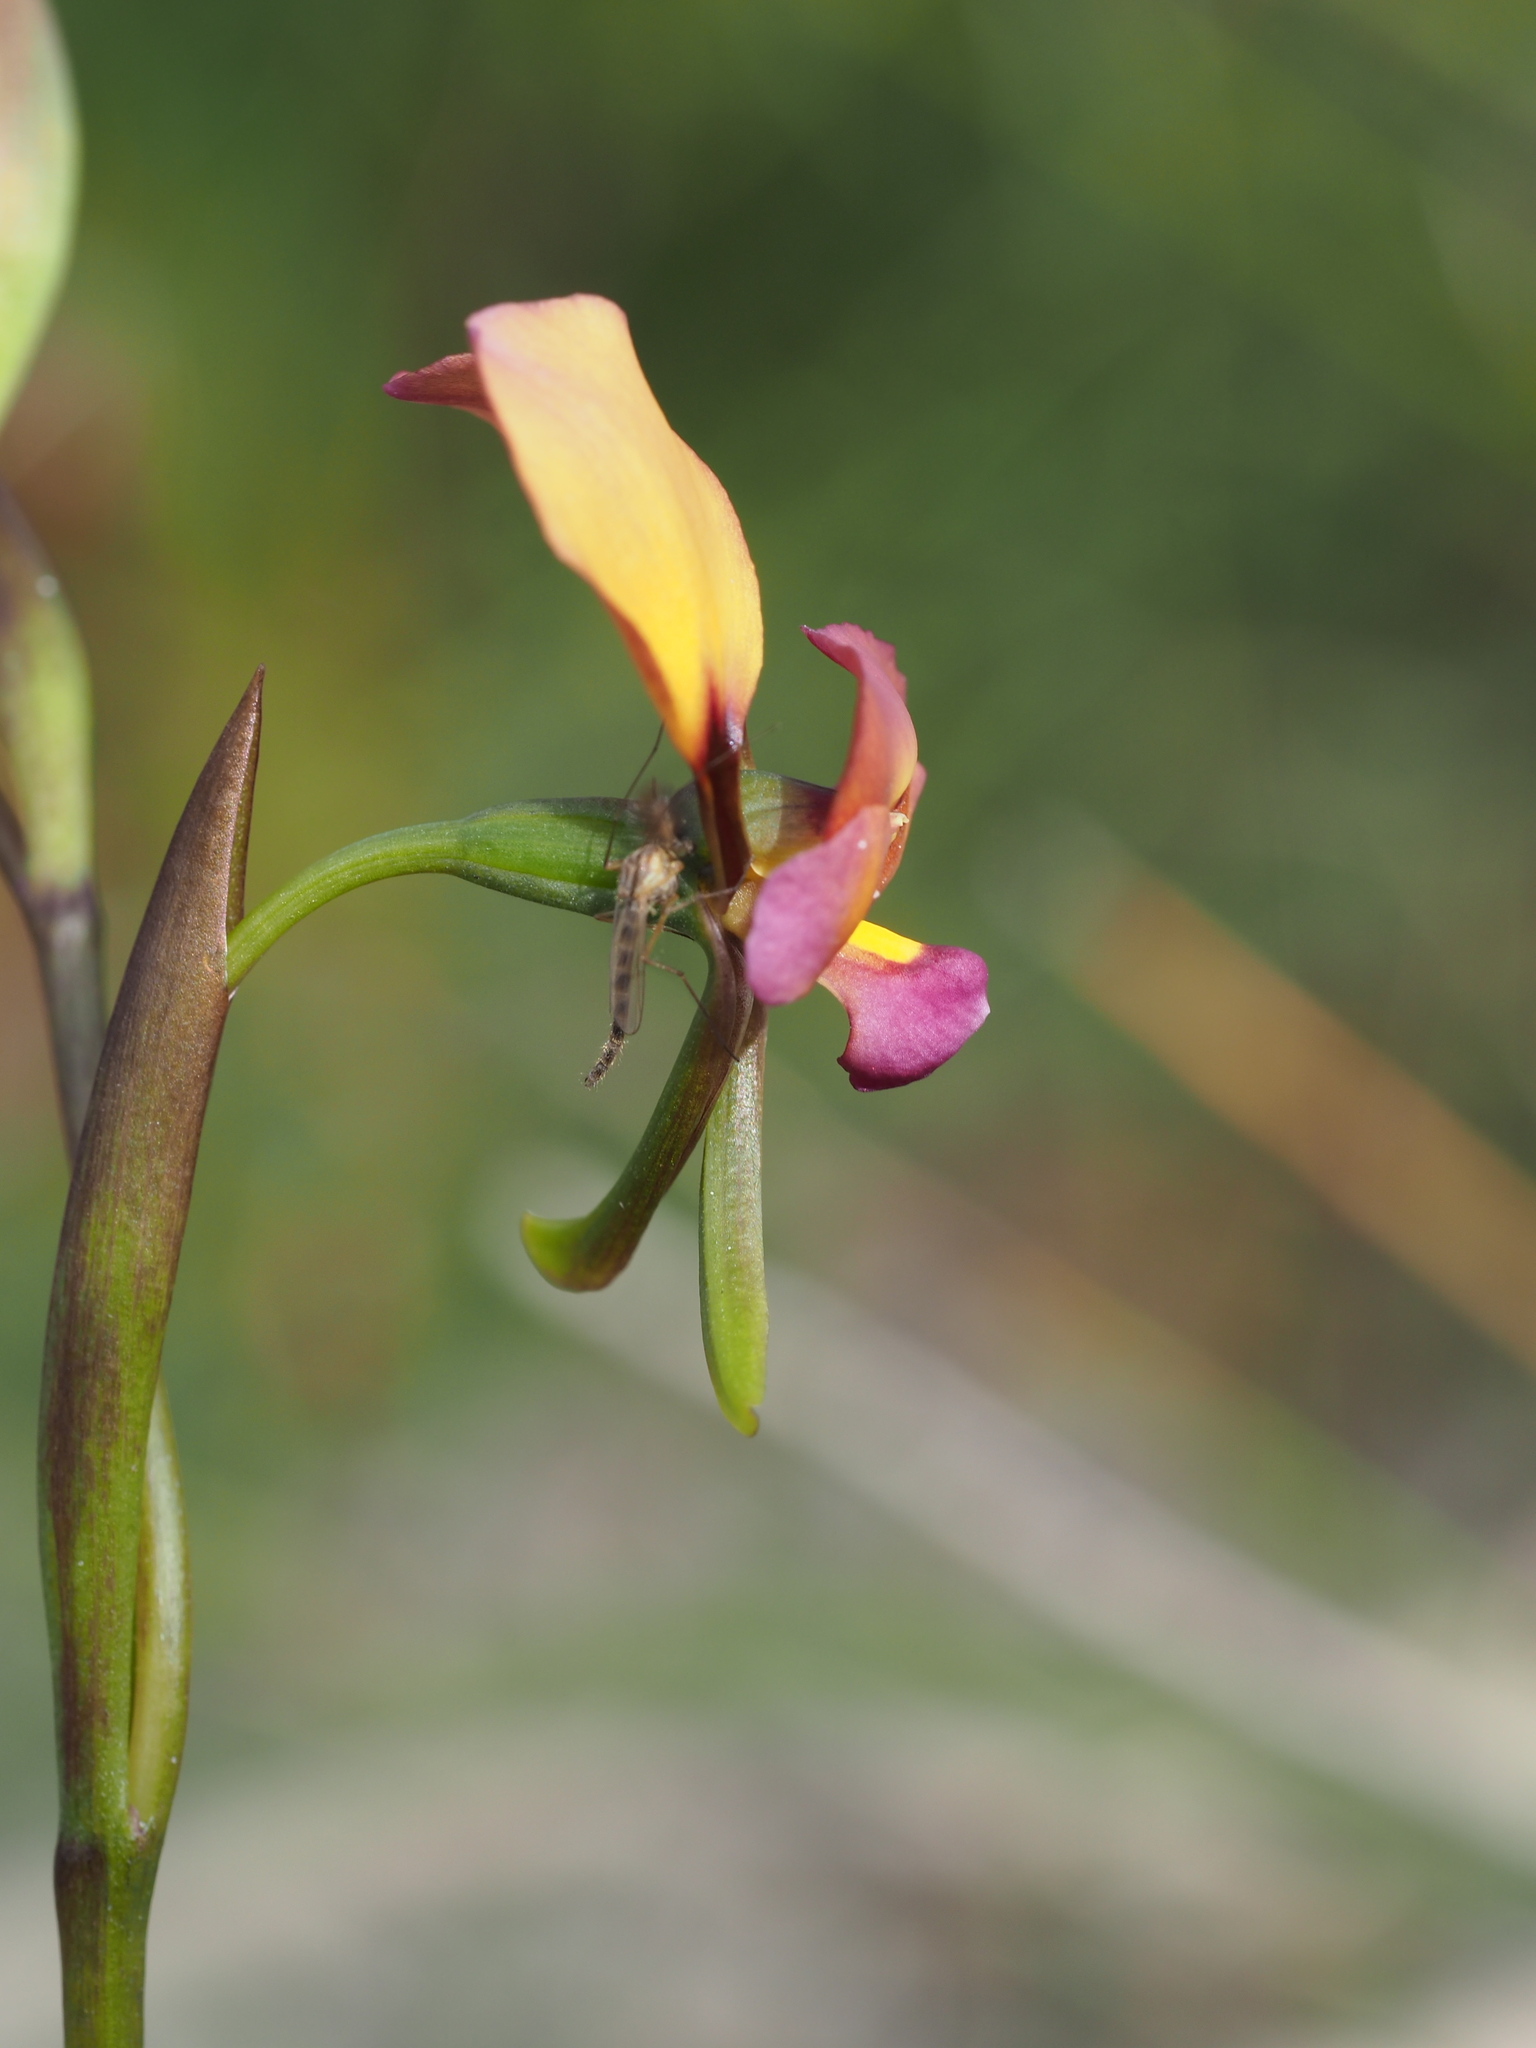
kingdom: Plantae
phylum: Tracheophyta
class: Liliopsida
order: Asparagales
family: Orchidaceae
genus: Diuris
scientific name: Diuris longifolia
